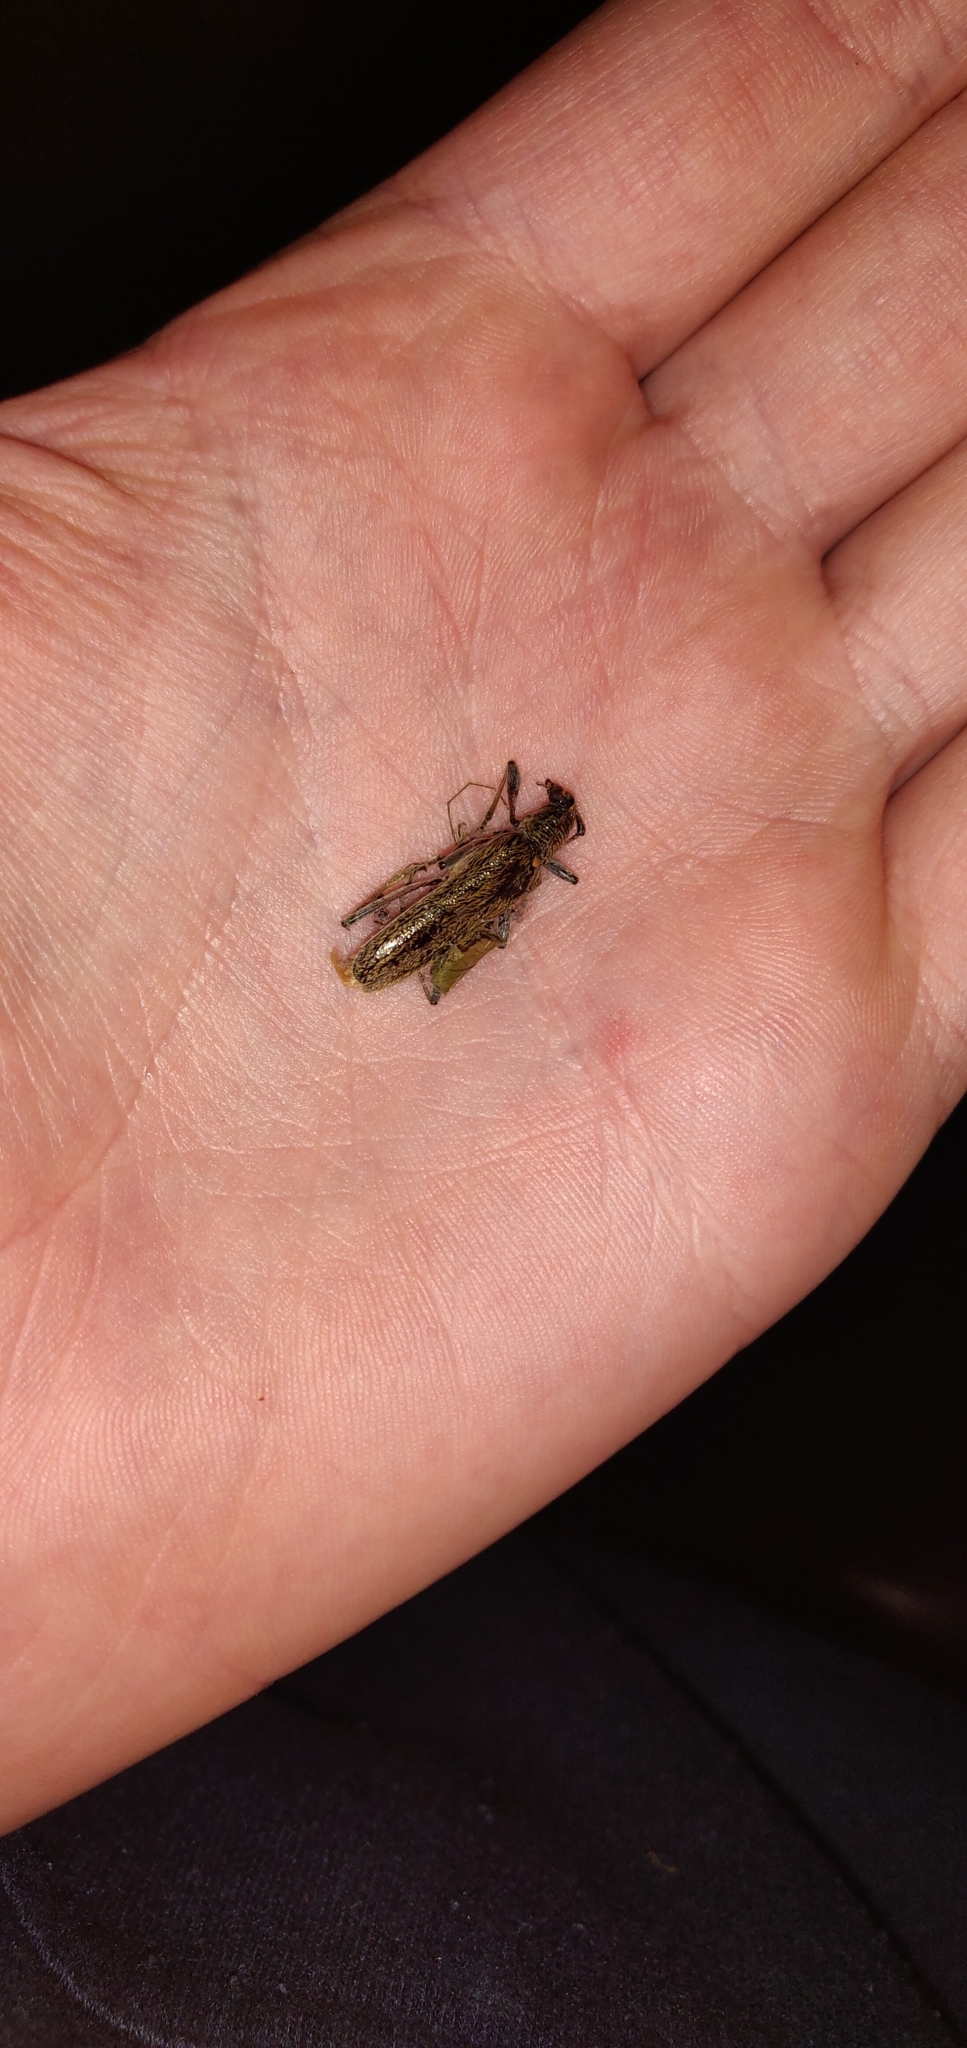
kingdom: Animalia
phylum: Arthropoda
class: Insecta
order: Coleoptera
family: Cerambycidae
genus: Oemona
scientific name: Oemona hirta
